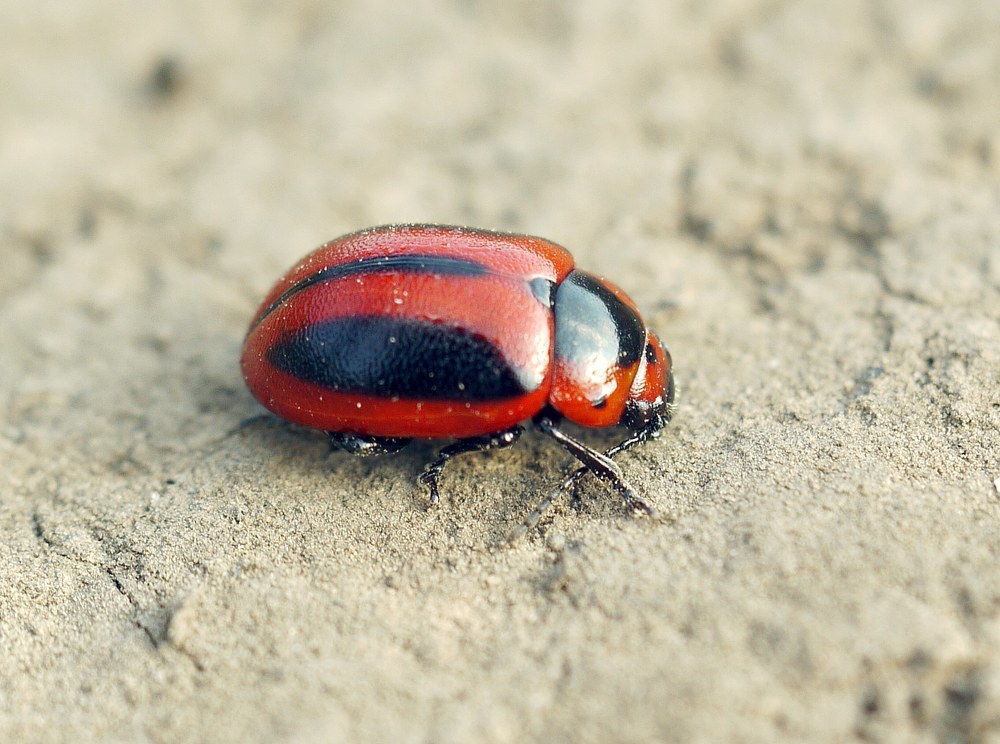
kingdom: Animalia
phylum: Arthropoda
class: Insecta
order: Coleoptera
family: Chrysomelidae
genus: Entomoscelis
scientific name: Entomoscelis adonidis
